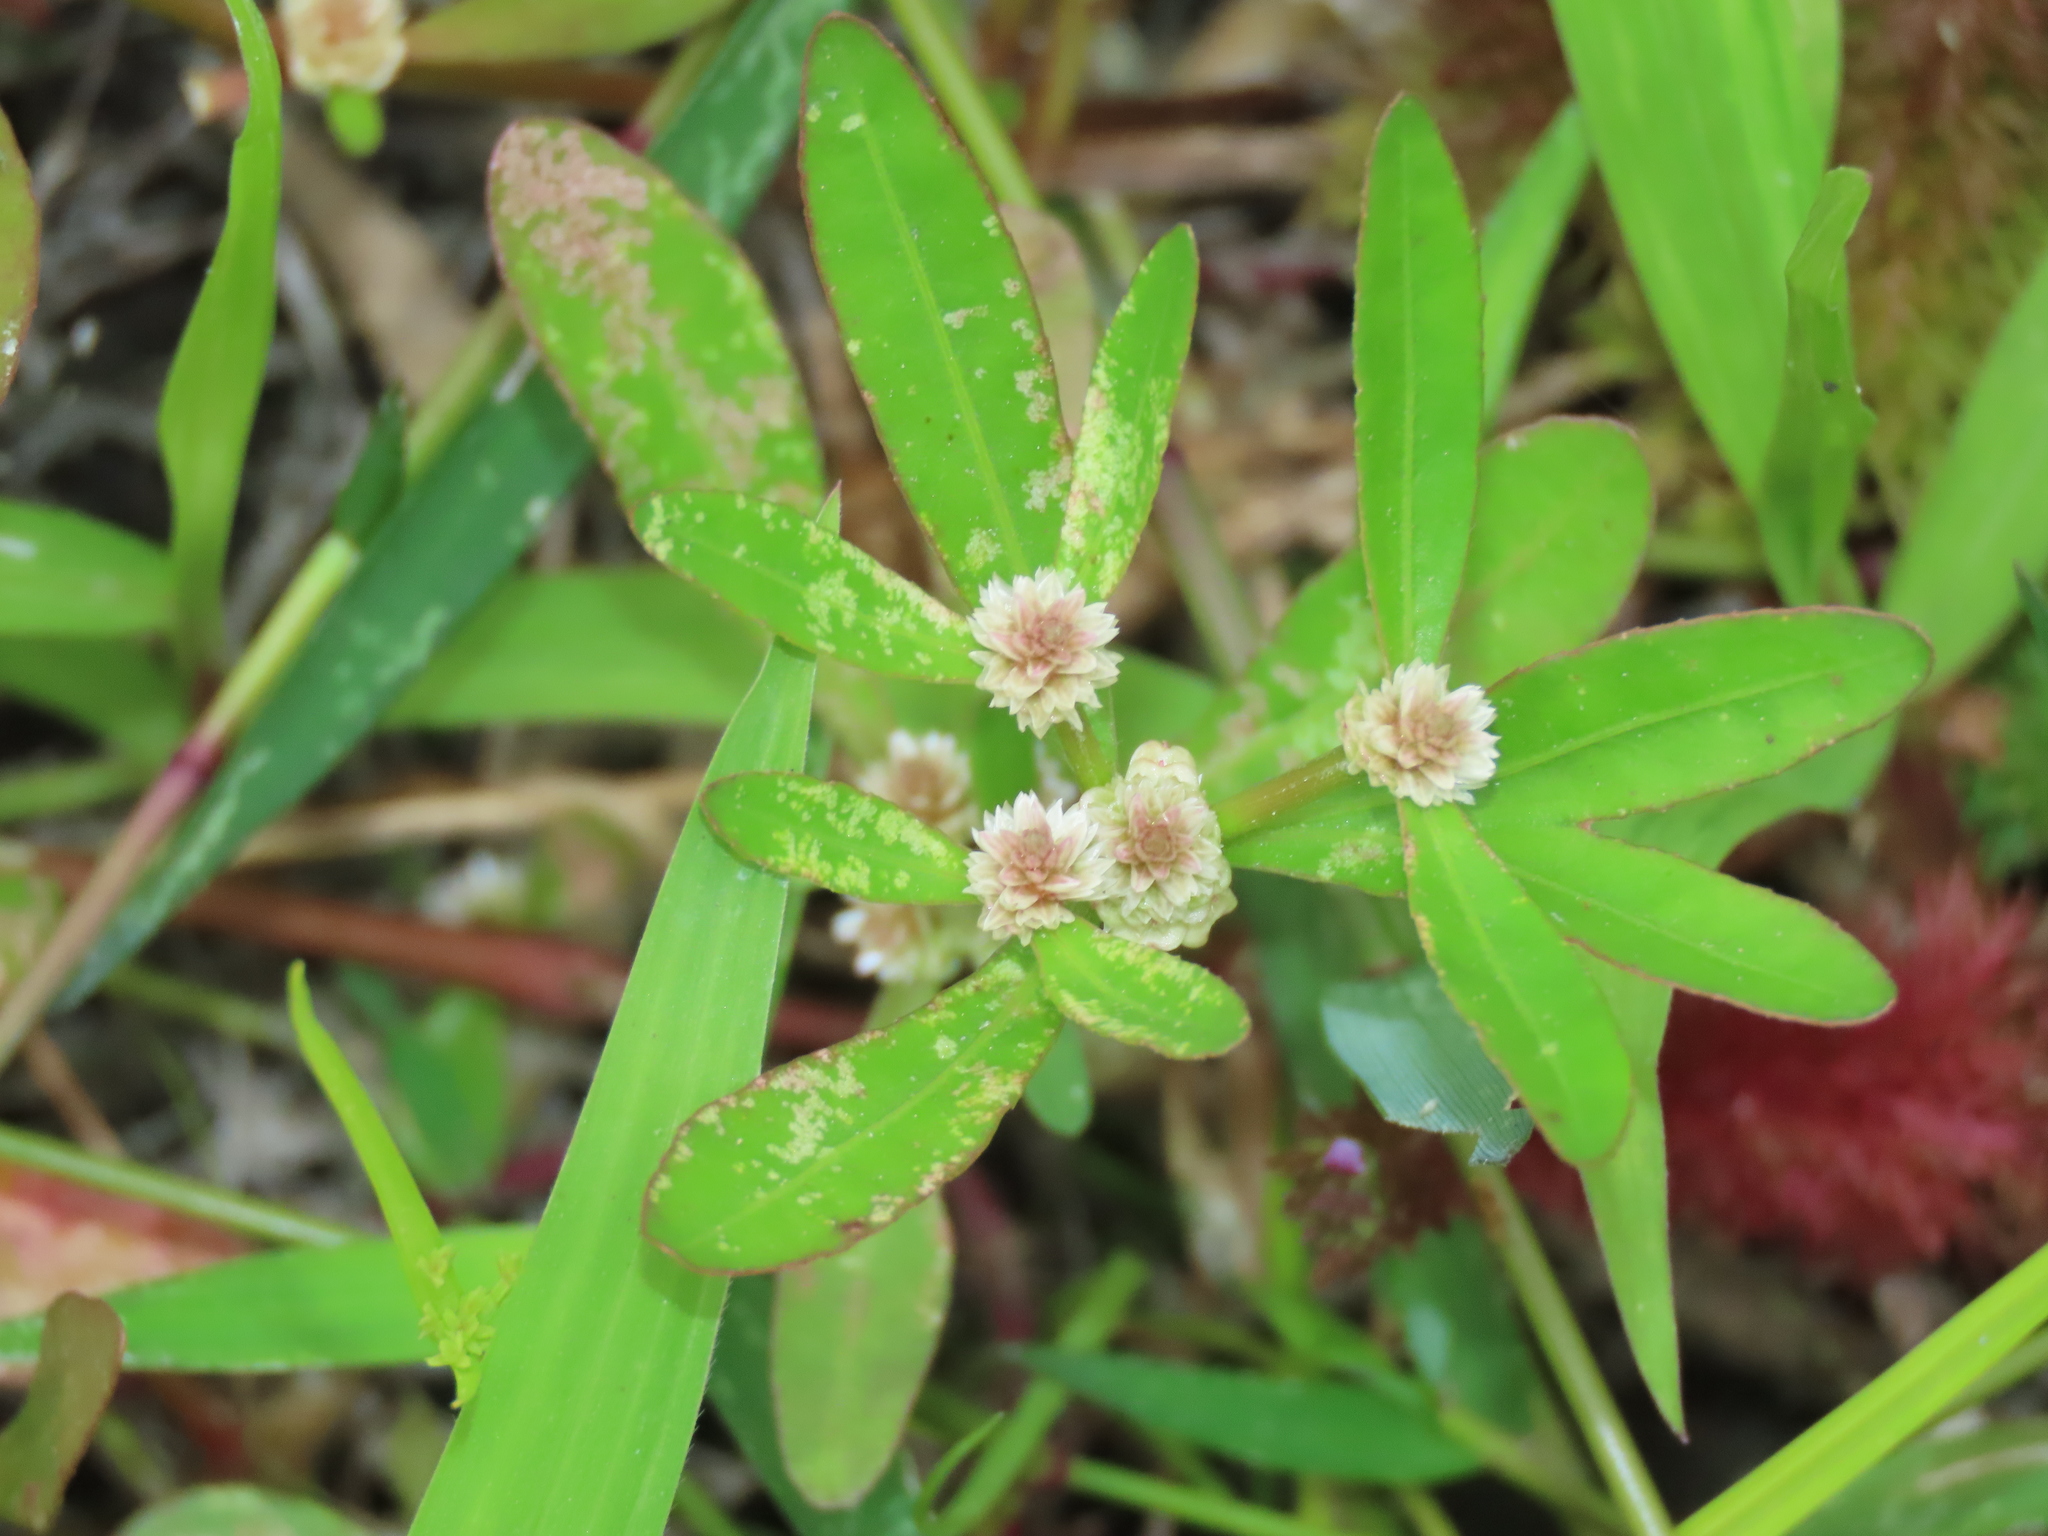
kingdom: Plantae
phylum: Tracheophyta
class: Magnoliopsida
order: Caryophyllales
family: Amaranthaceae
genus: Alternanthera
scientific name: Alternanthera sessilis
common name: Sessile joyweed
